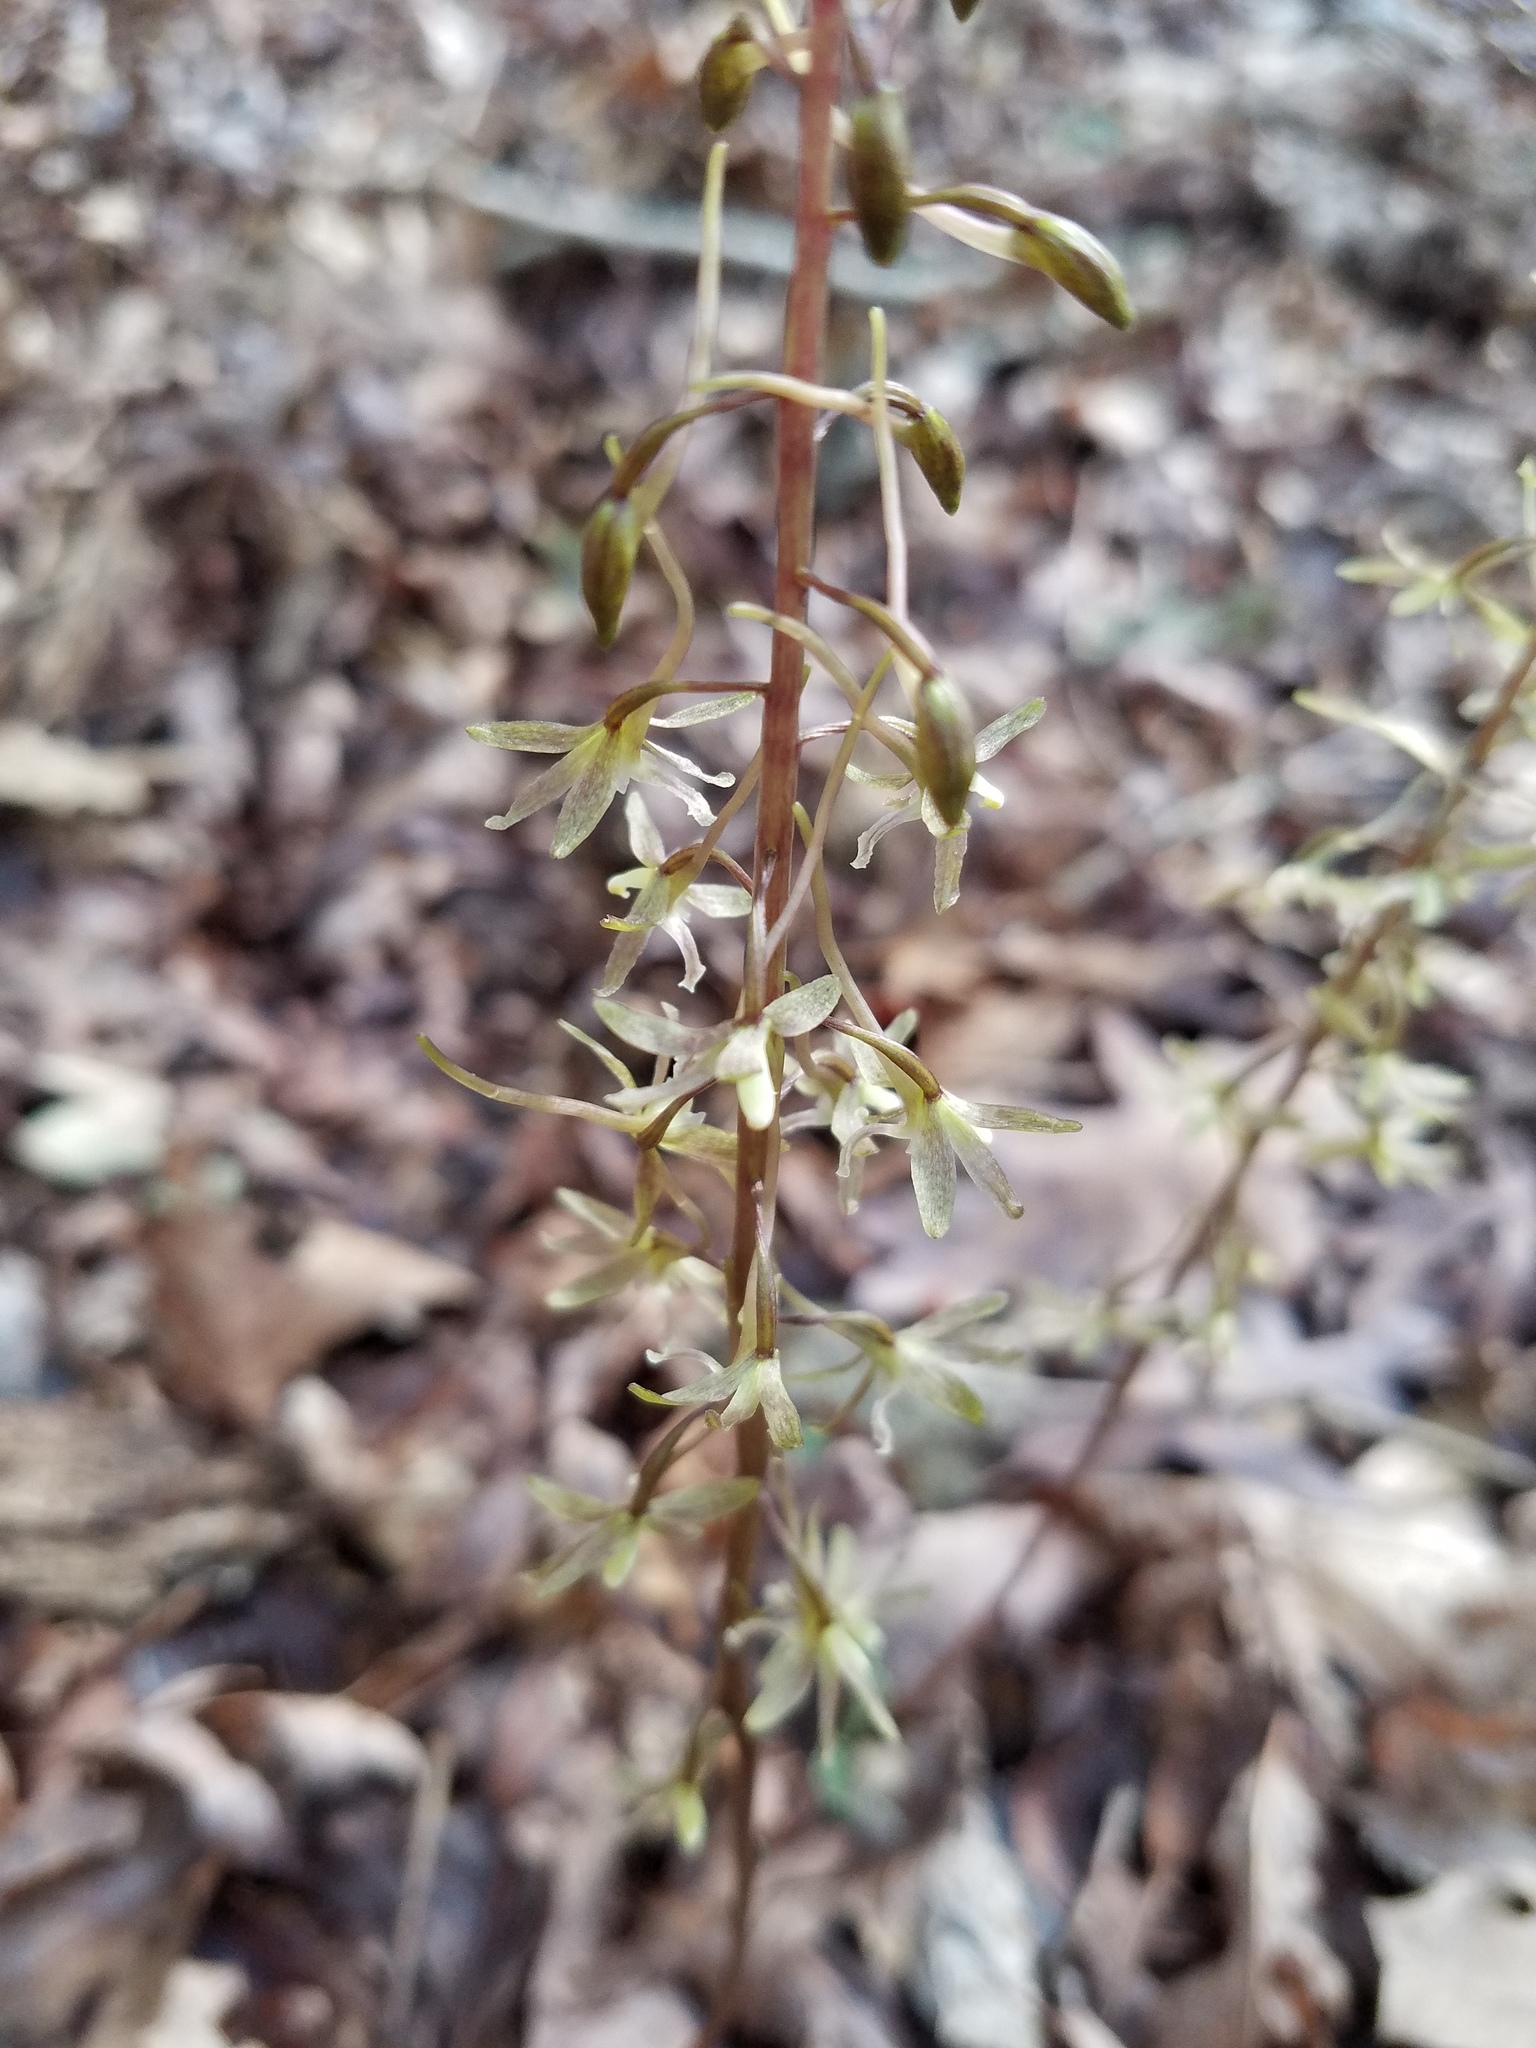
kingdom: Plantae
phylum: Tracheophyta
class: Liliopsida
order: Asparagales
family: Orchidaceae
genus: Tipularia
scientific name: Tipularia discolor
